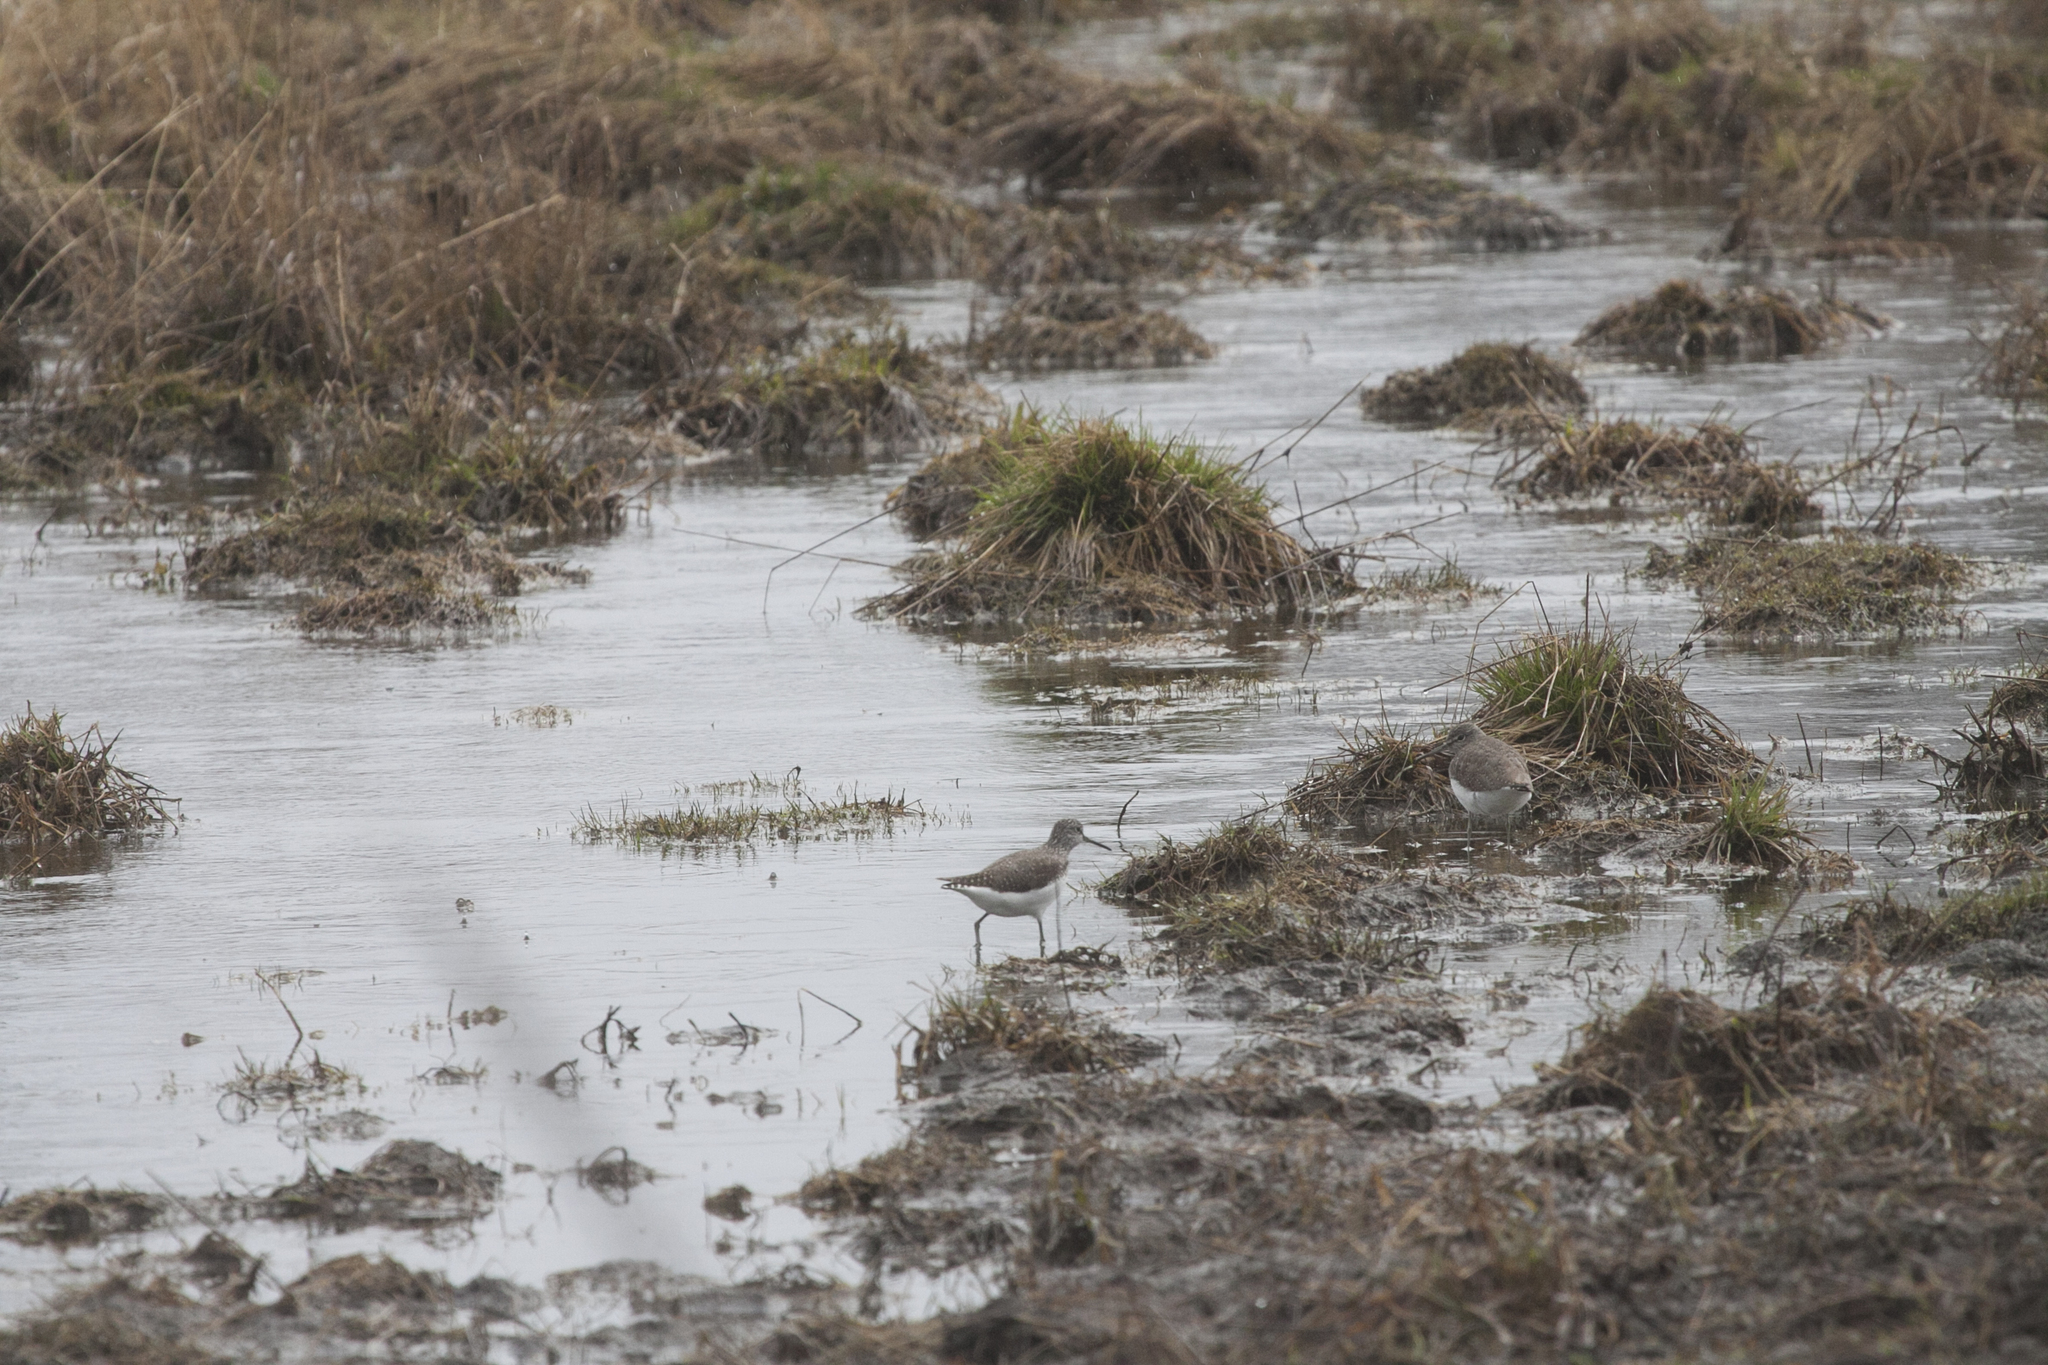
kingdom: Animalia
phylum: Chordata
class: Aves
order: Charadriiformes
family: Scolopacidae
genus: Tringa
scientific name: Tringa ochropus
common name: Green sandpiper
